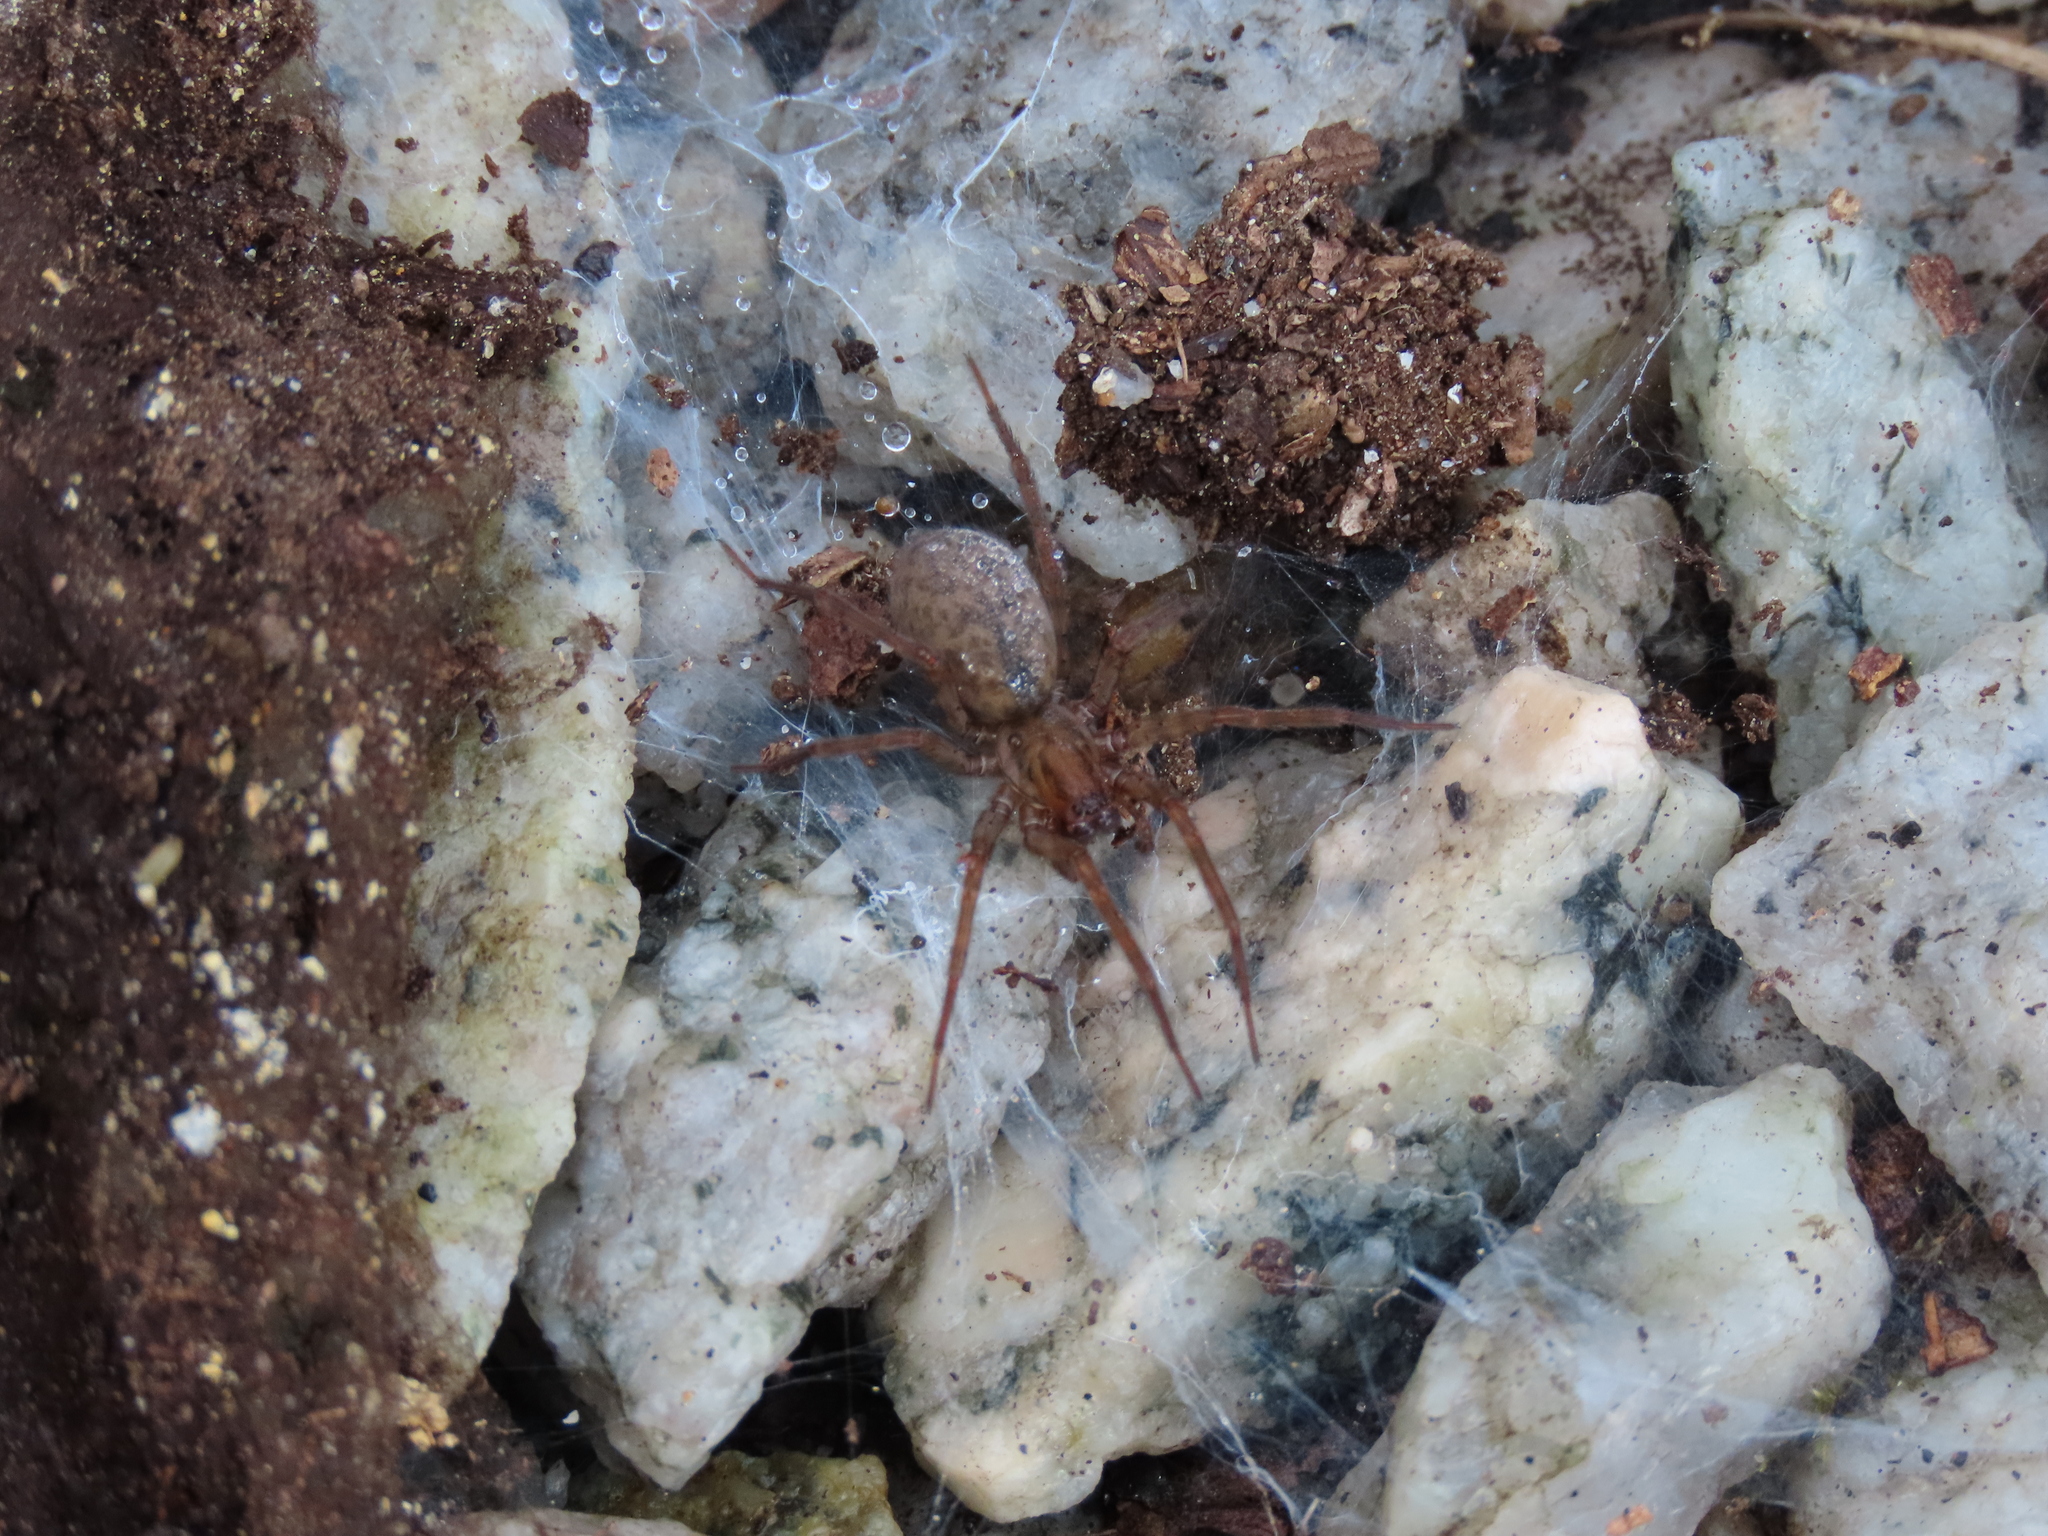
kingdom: Animalia
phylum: Arthropoda
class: Arachnida
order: Araneae
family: Agelenidae
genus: Coras
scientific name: Coras
